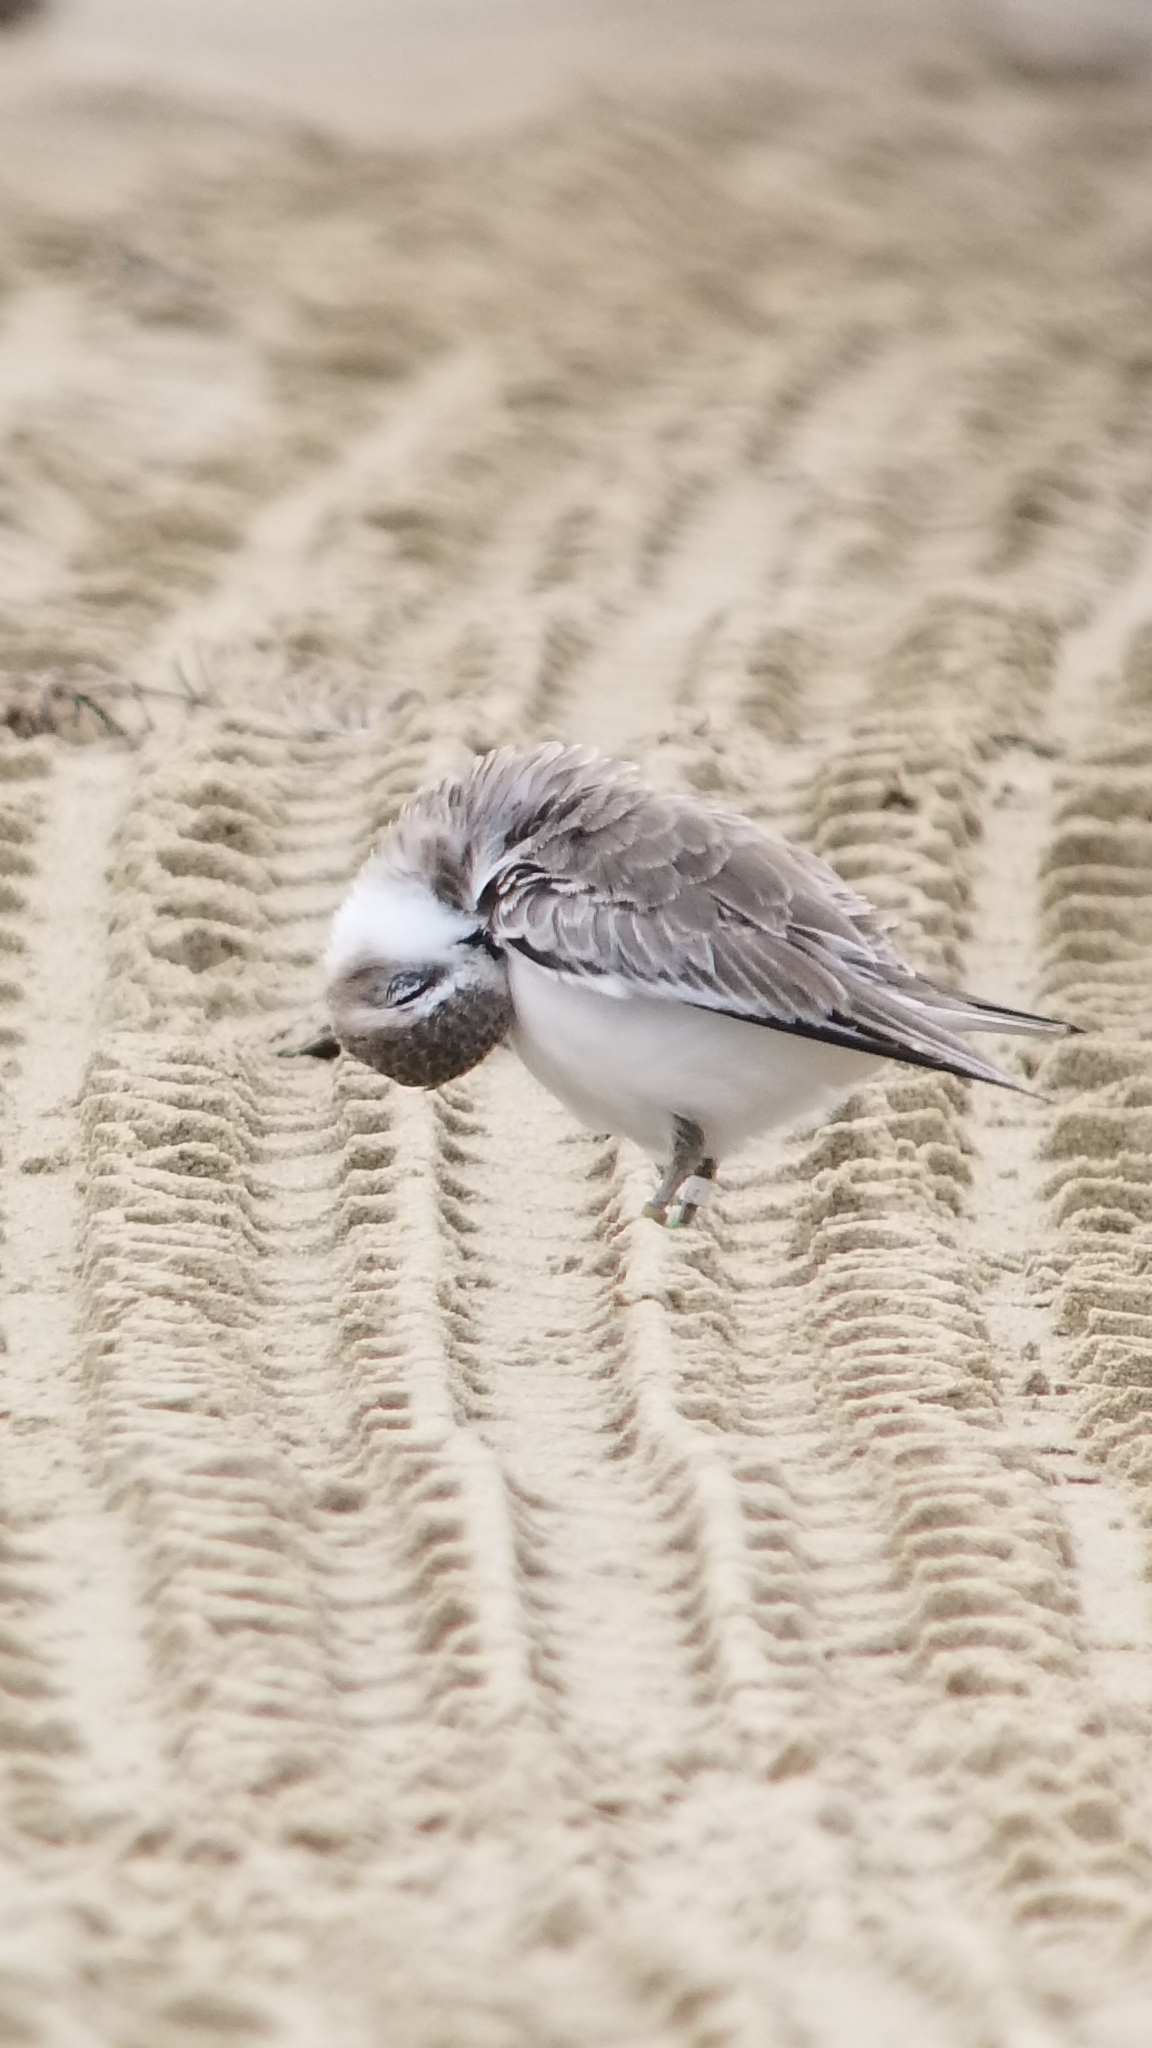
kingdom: Animalia
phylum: Chordata
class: Aves
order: Charadriiformes
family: Charadriidae
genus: Anarhynchus
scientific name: Anarhynchus
